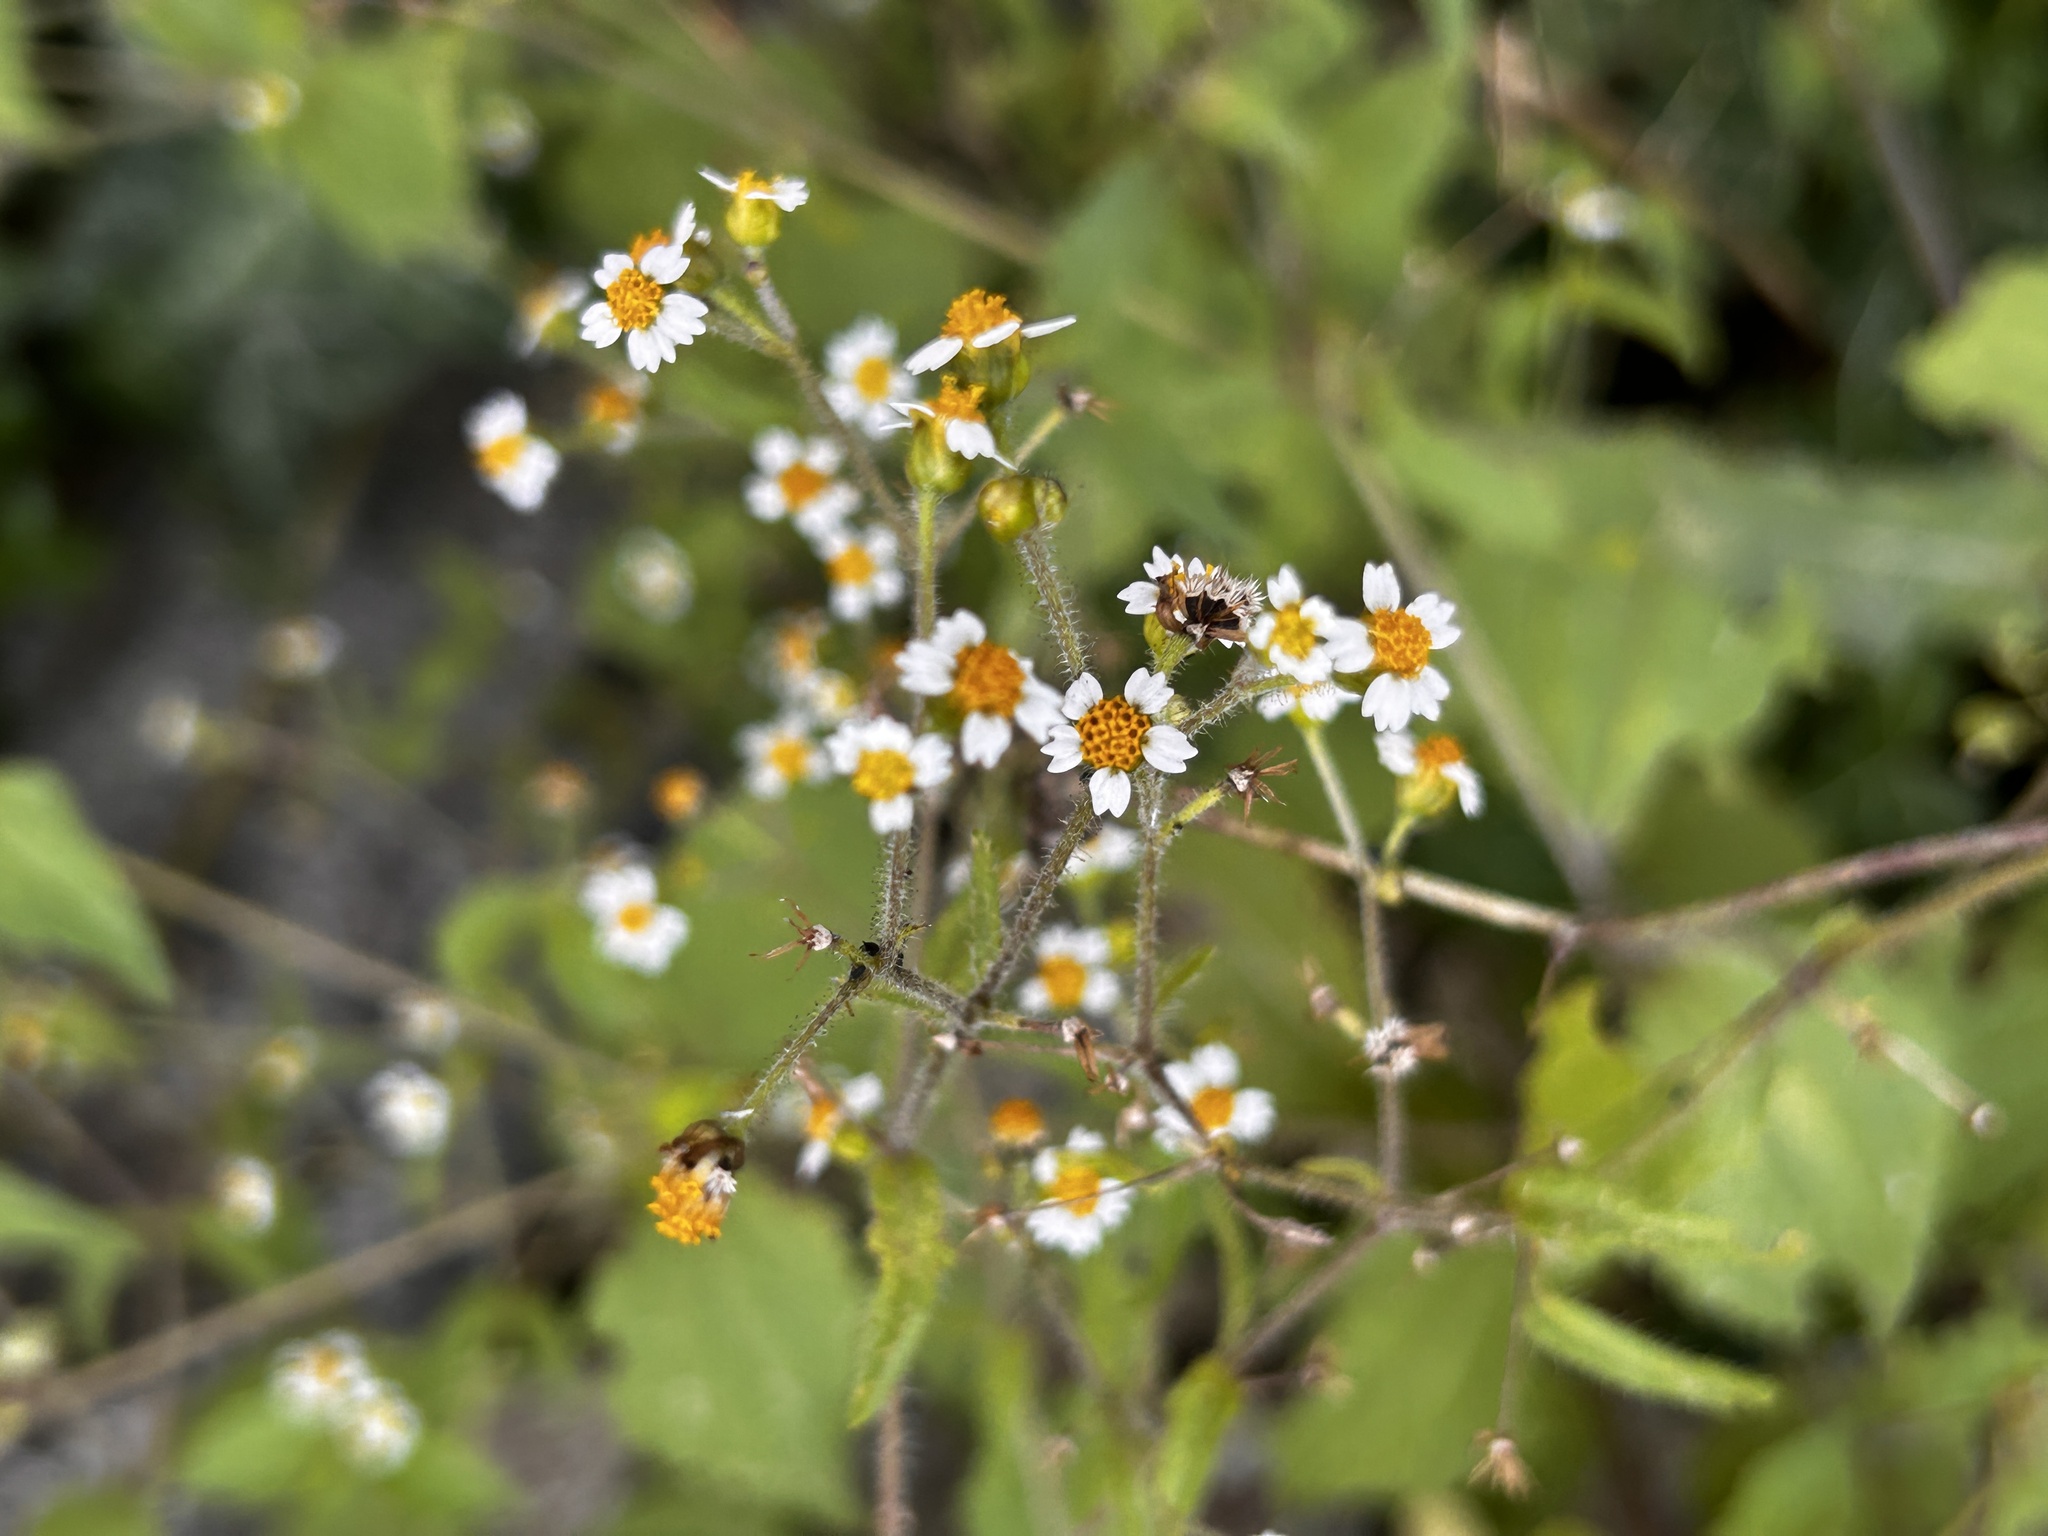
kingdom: Plantae
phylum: Tracheophyta
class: Magnoliopsida
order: Asterales
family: Asteraceae
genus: Galinsoga
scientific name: Galinsoga quadriradiata
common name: Shaggy soldier
